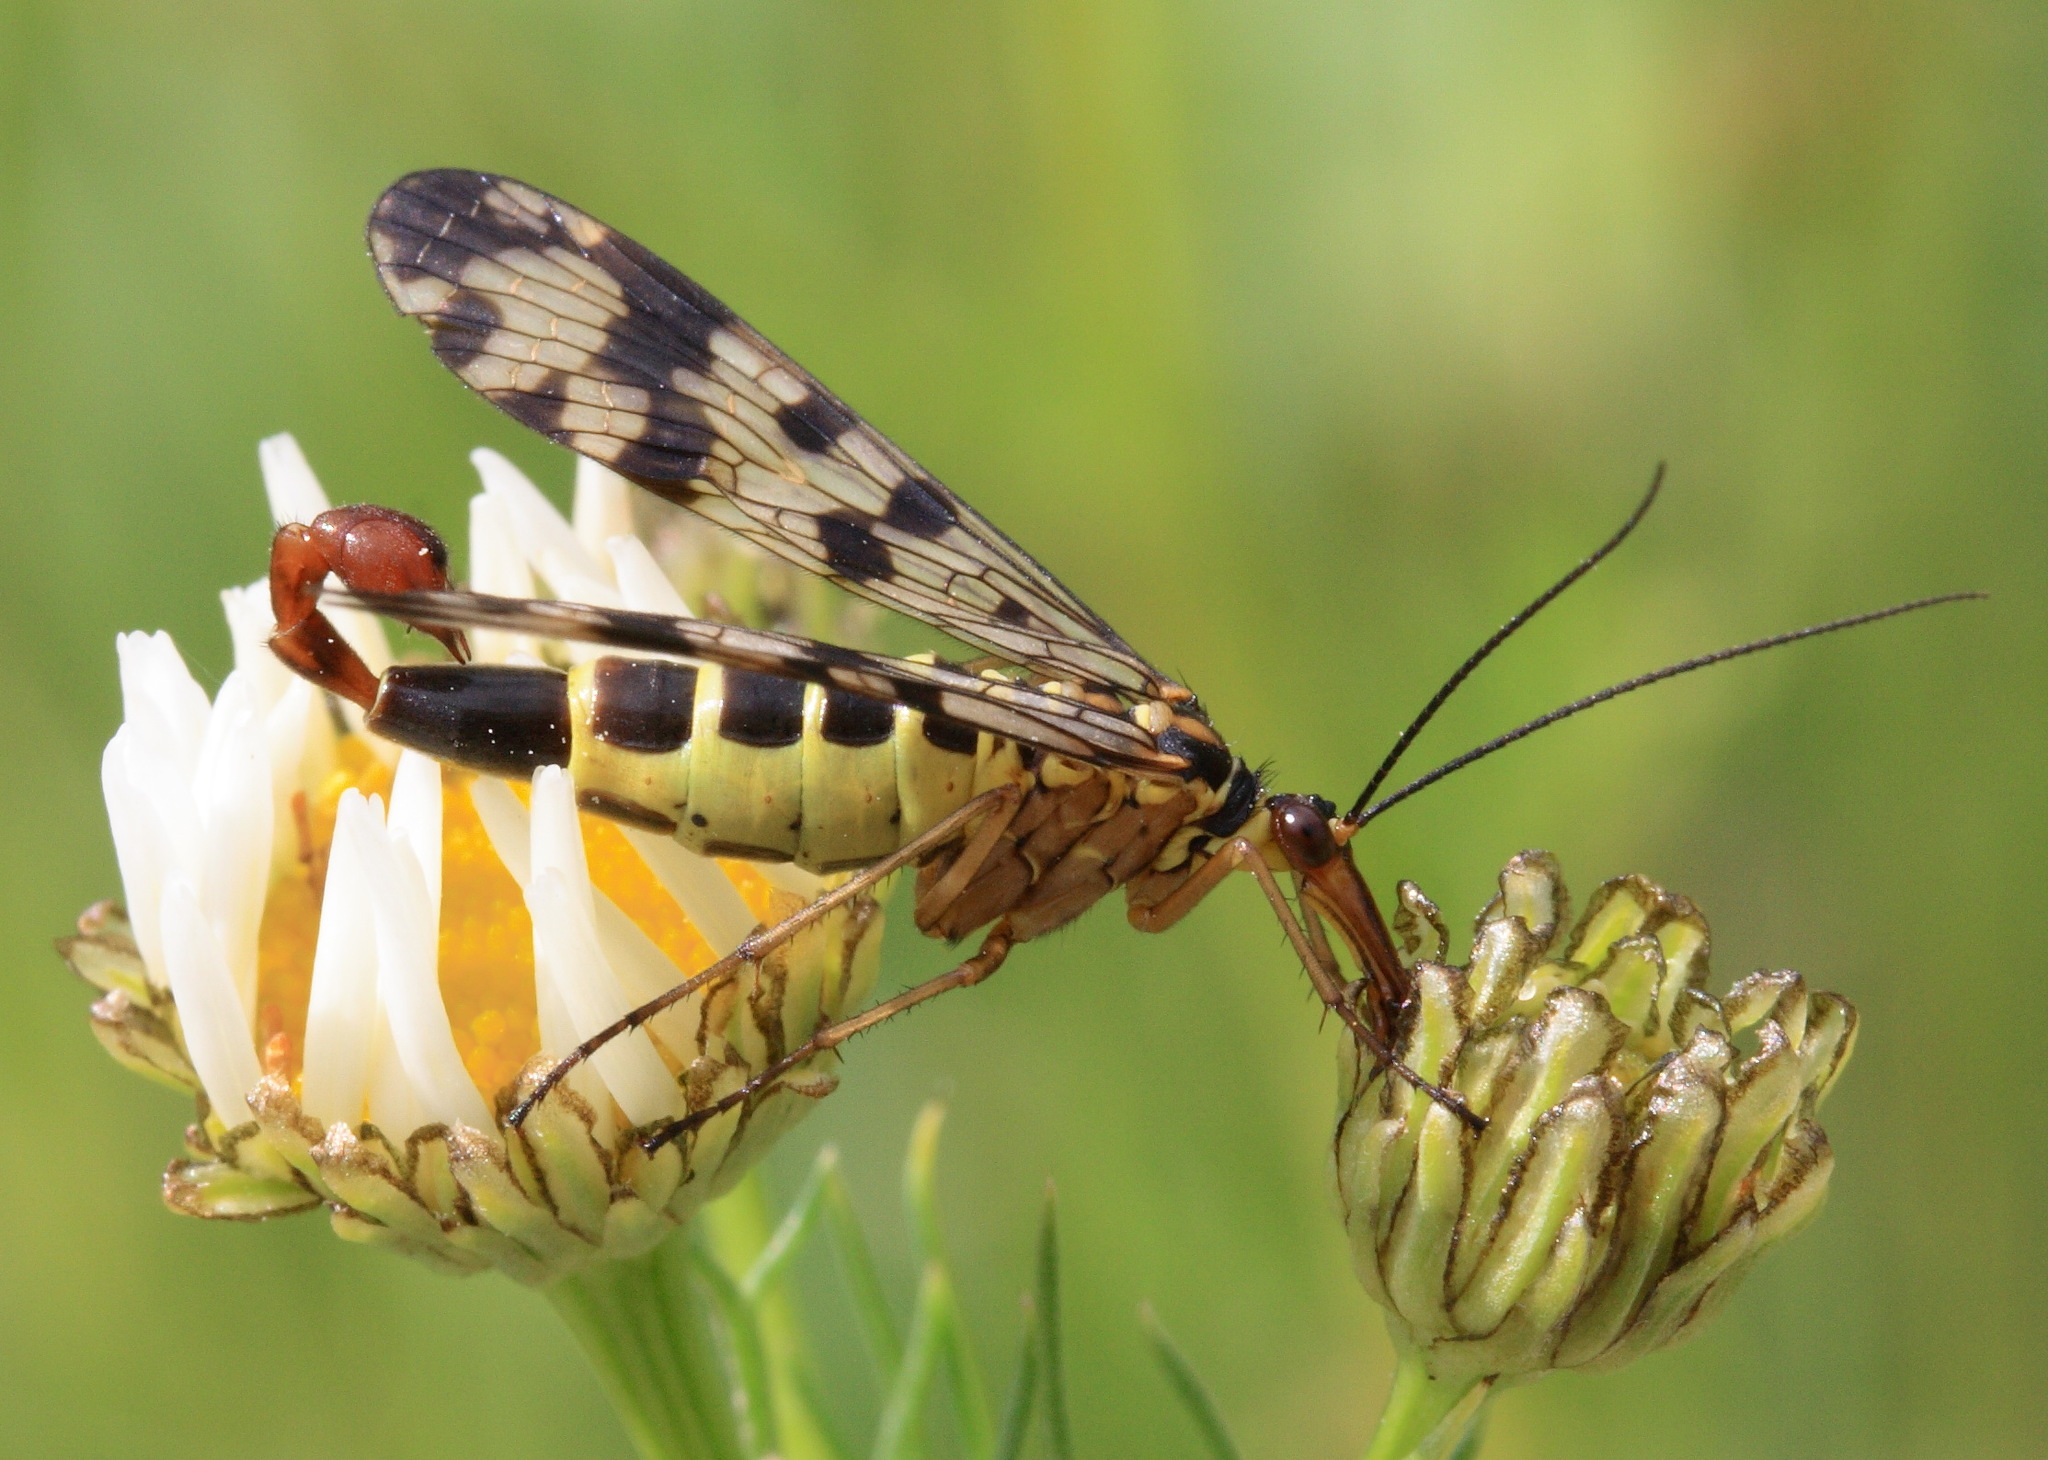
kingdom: Animalia
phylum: Arthropoda
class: Insecta
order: Mecoptera
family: Panorpidae
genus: Panorpa
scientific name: Panorpa communis
